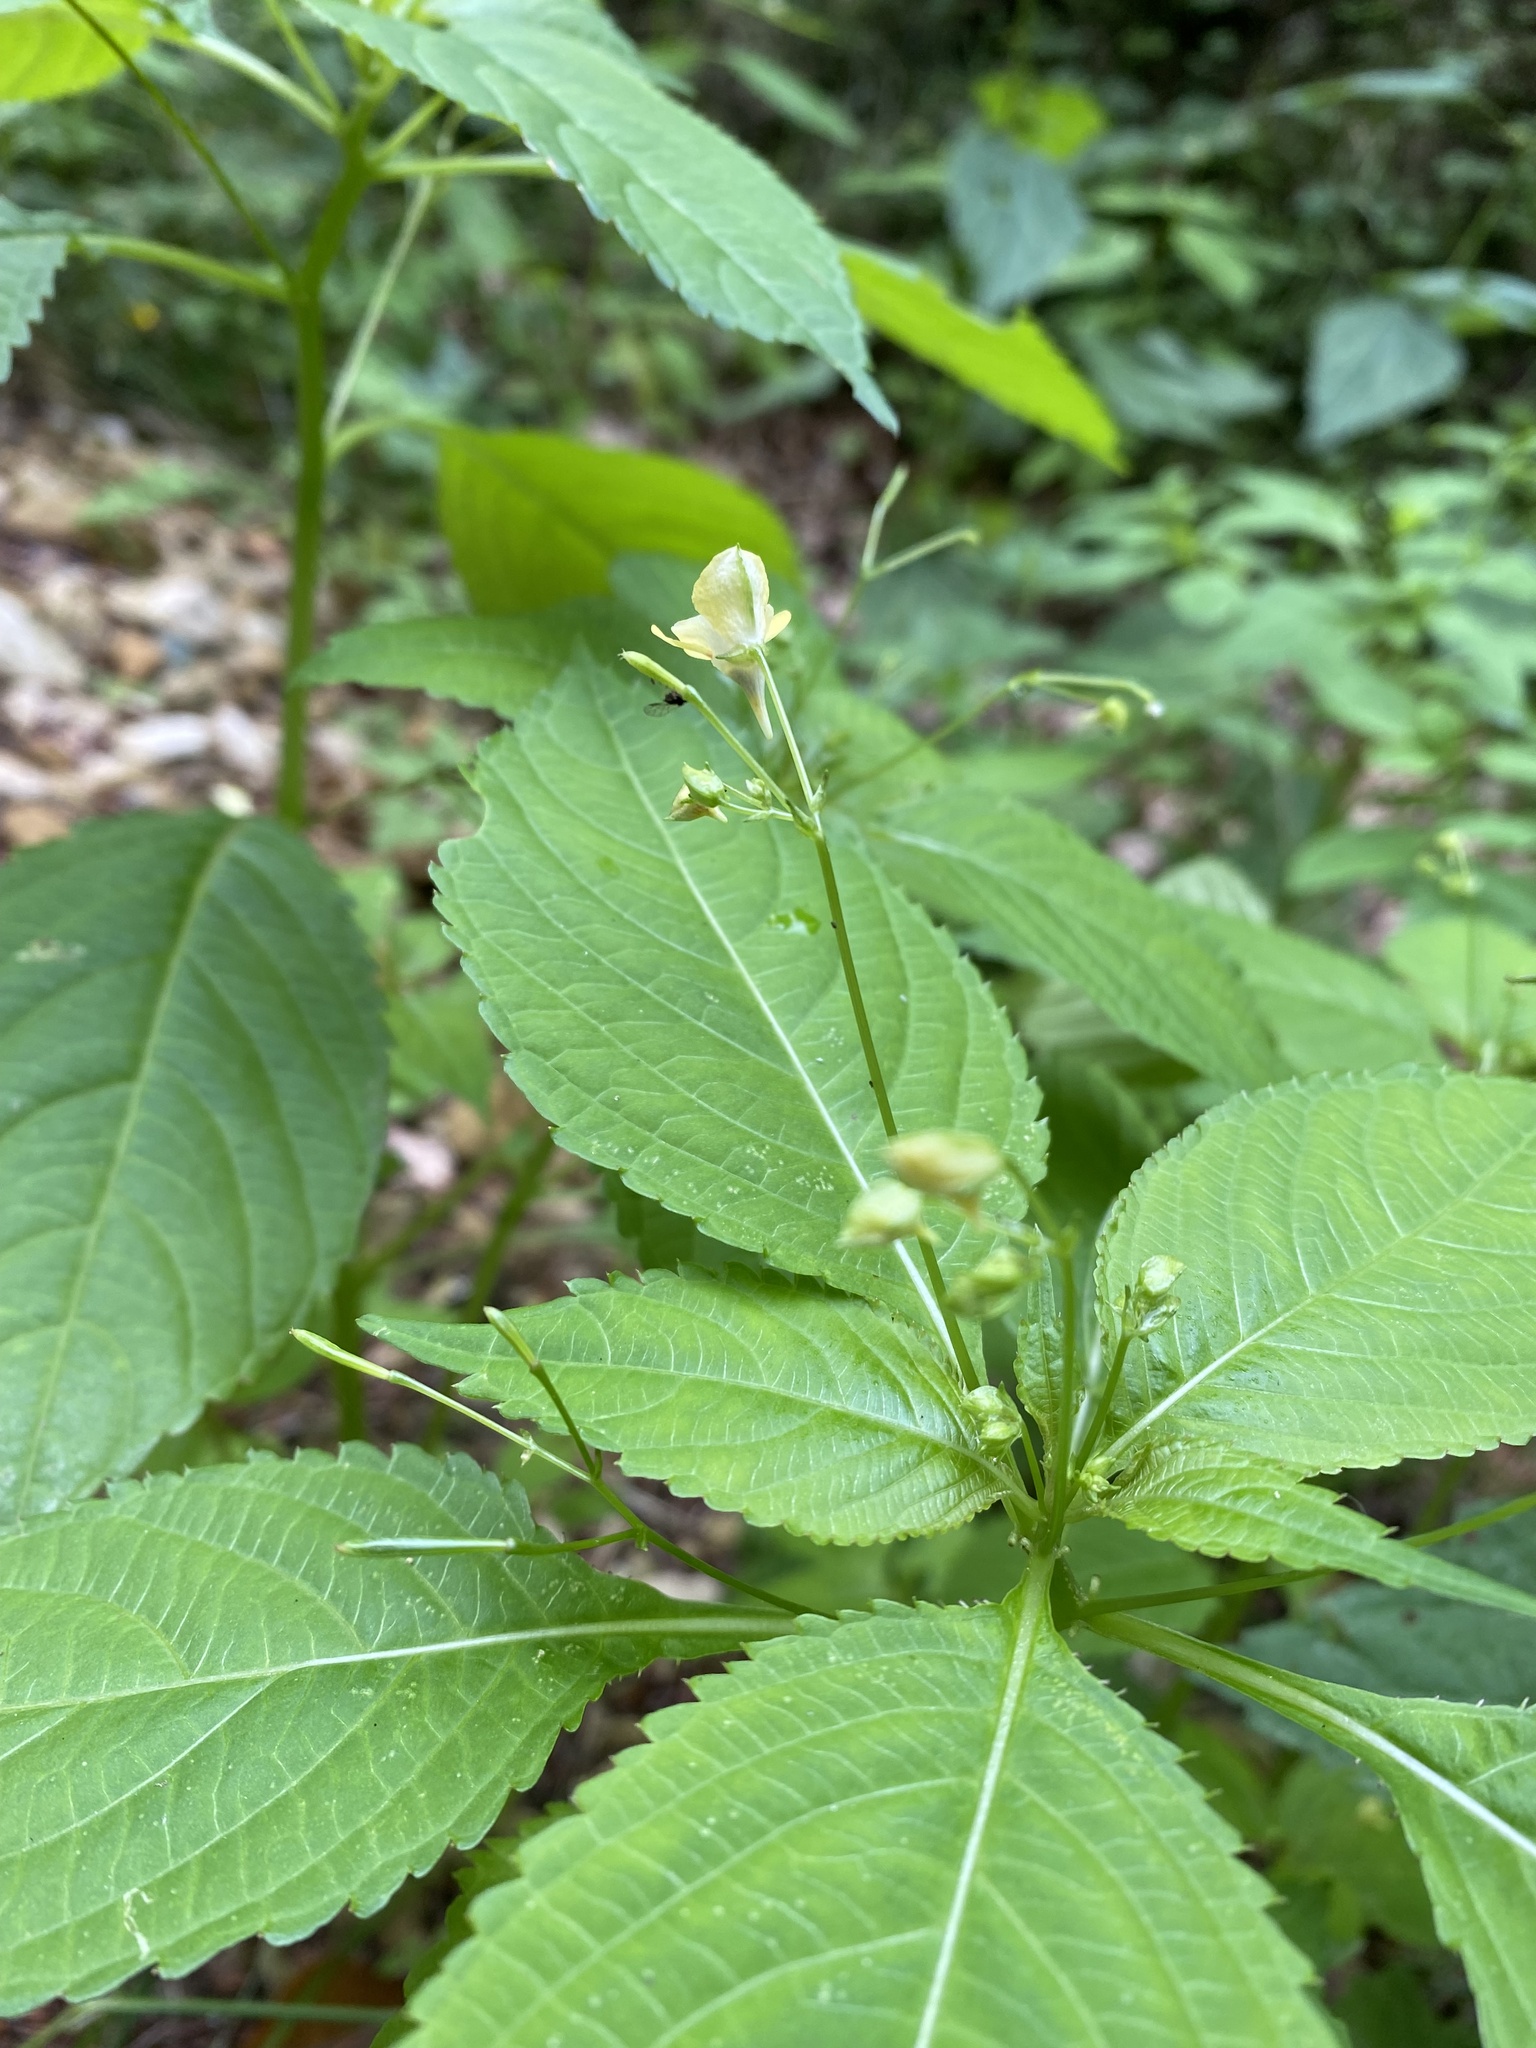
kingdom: Plantae
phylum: Tracheophyta
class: Magnoliopsida
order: Ericales
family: Balsaminaceae
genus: Impatiens
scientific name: Impatiens parviflora
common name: Small balsam
